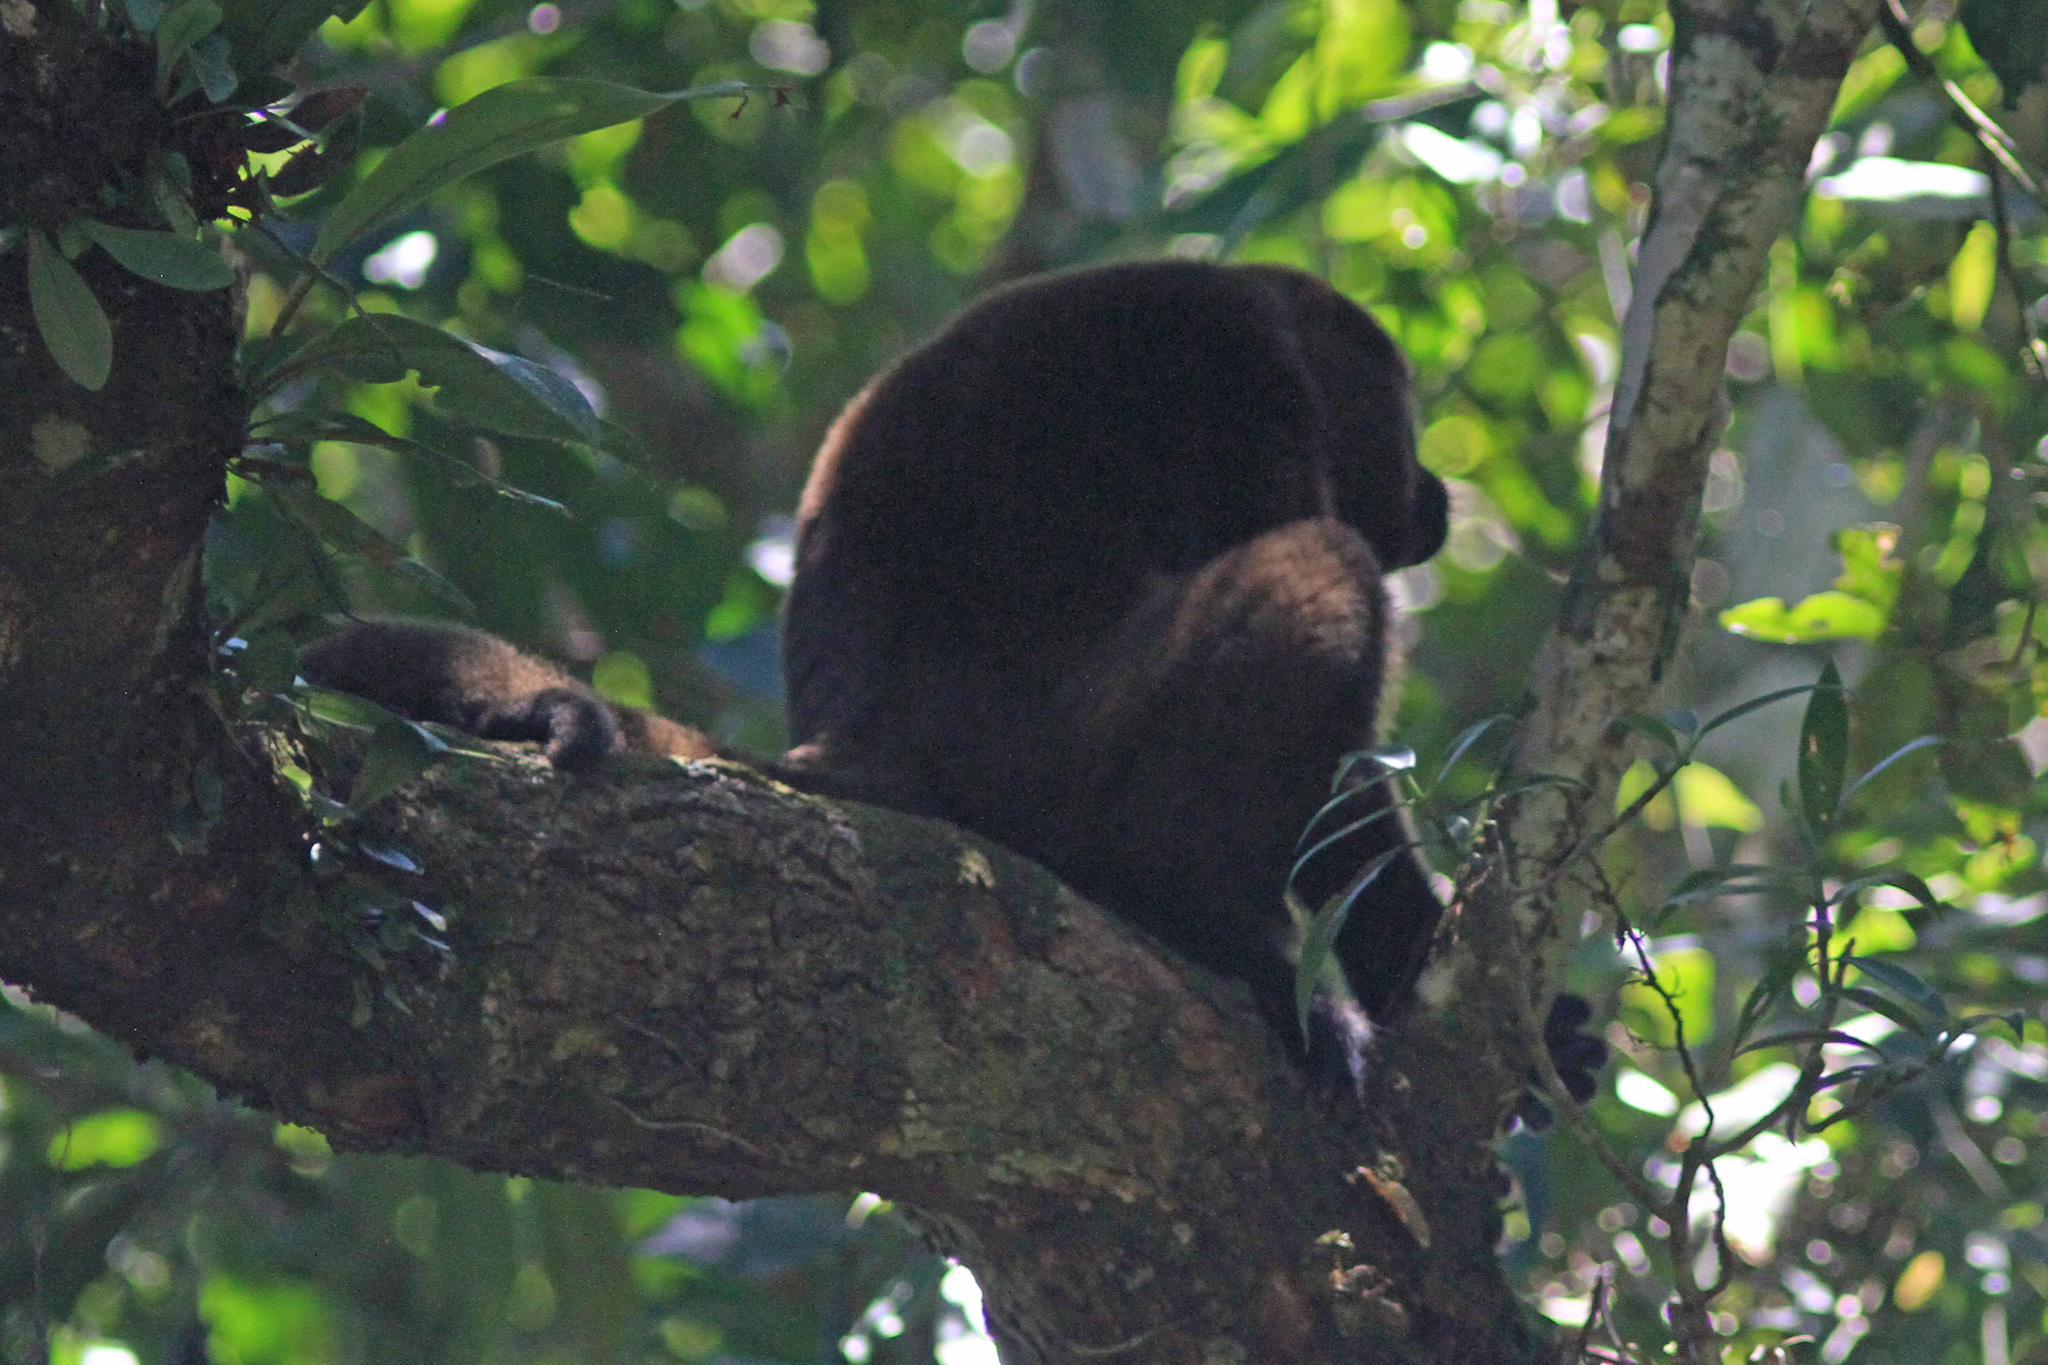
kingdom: Animalia
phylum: Chordata
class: Mammalia
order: Primates
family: Atelidae
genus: Lagothrix
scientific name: Lagothrix lagothricha
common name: Brown woolly monkey
